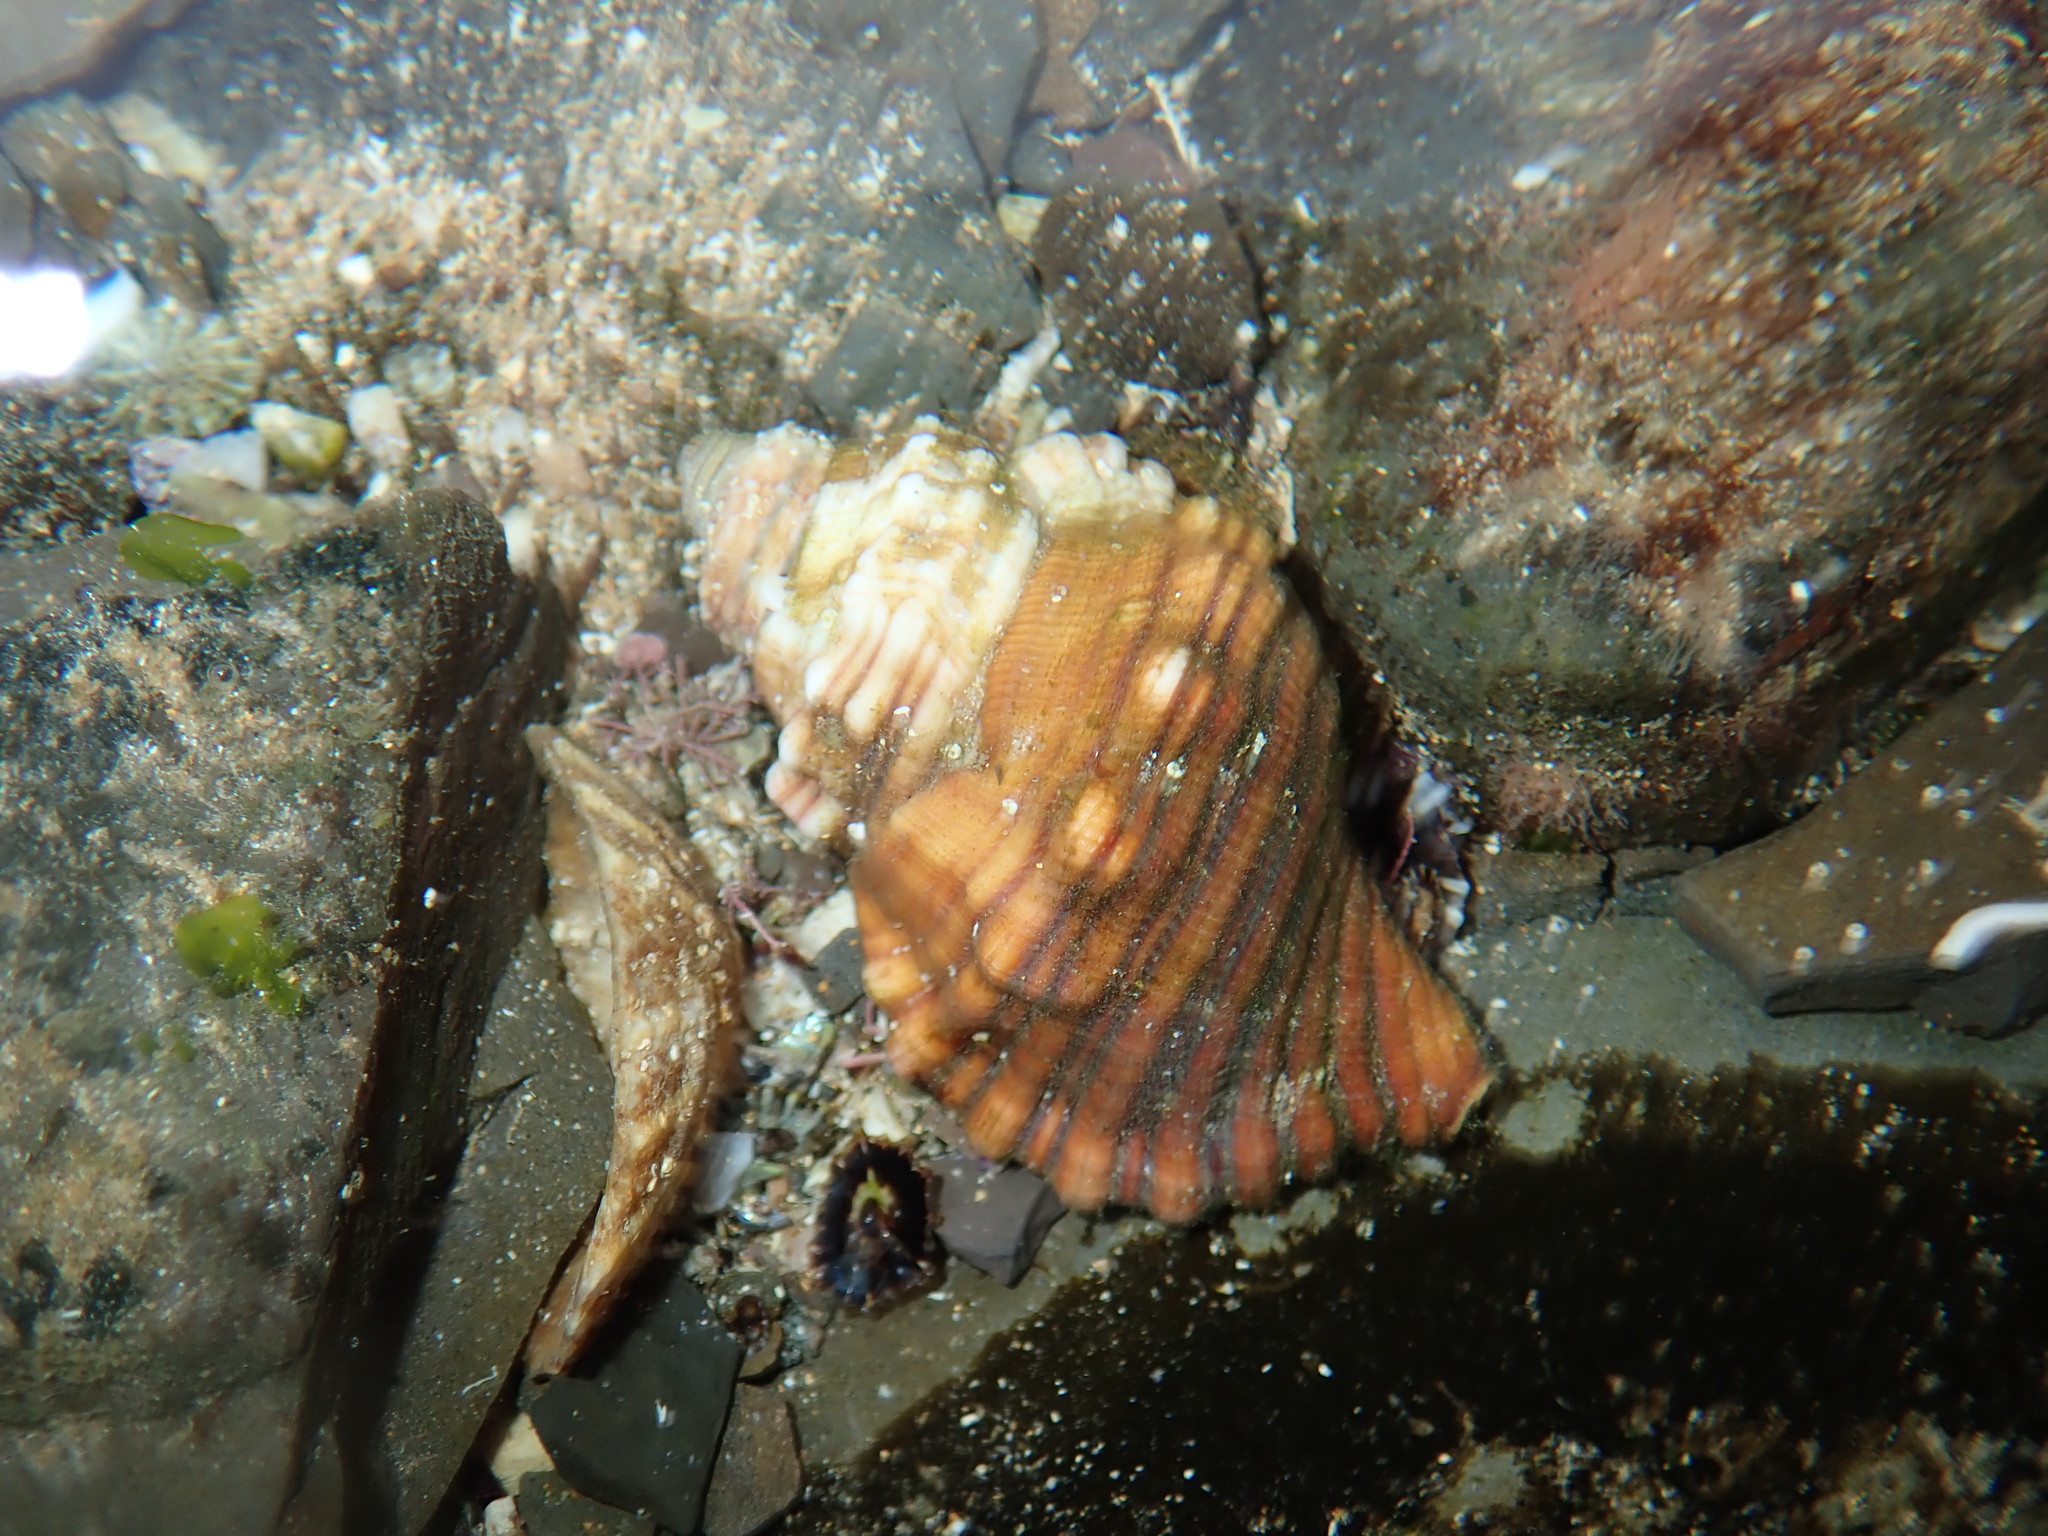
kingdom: Animalia
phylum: Mollusca
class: Gastropoda
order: Littorinimorpha
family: Cymatiidae
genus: Cabestana
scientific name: Cabestana spengleri
